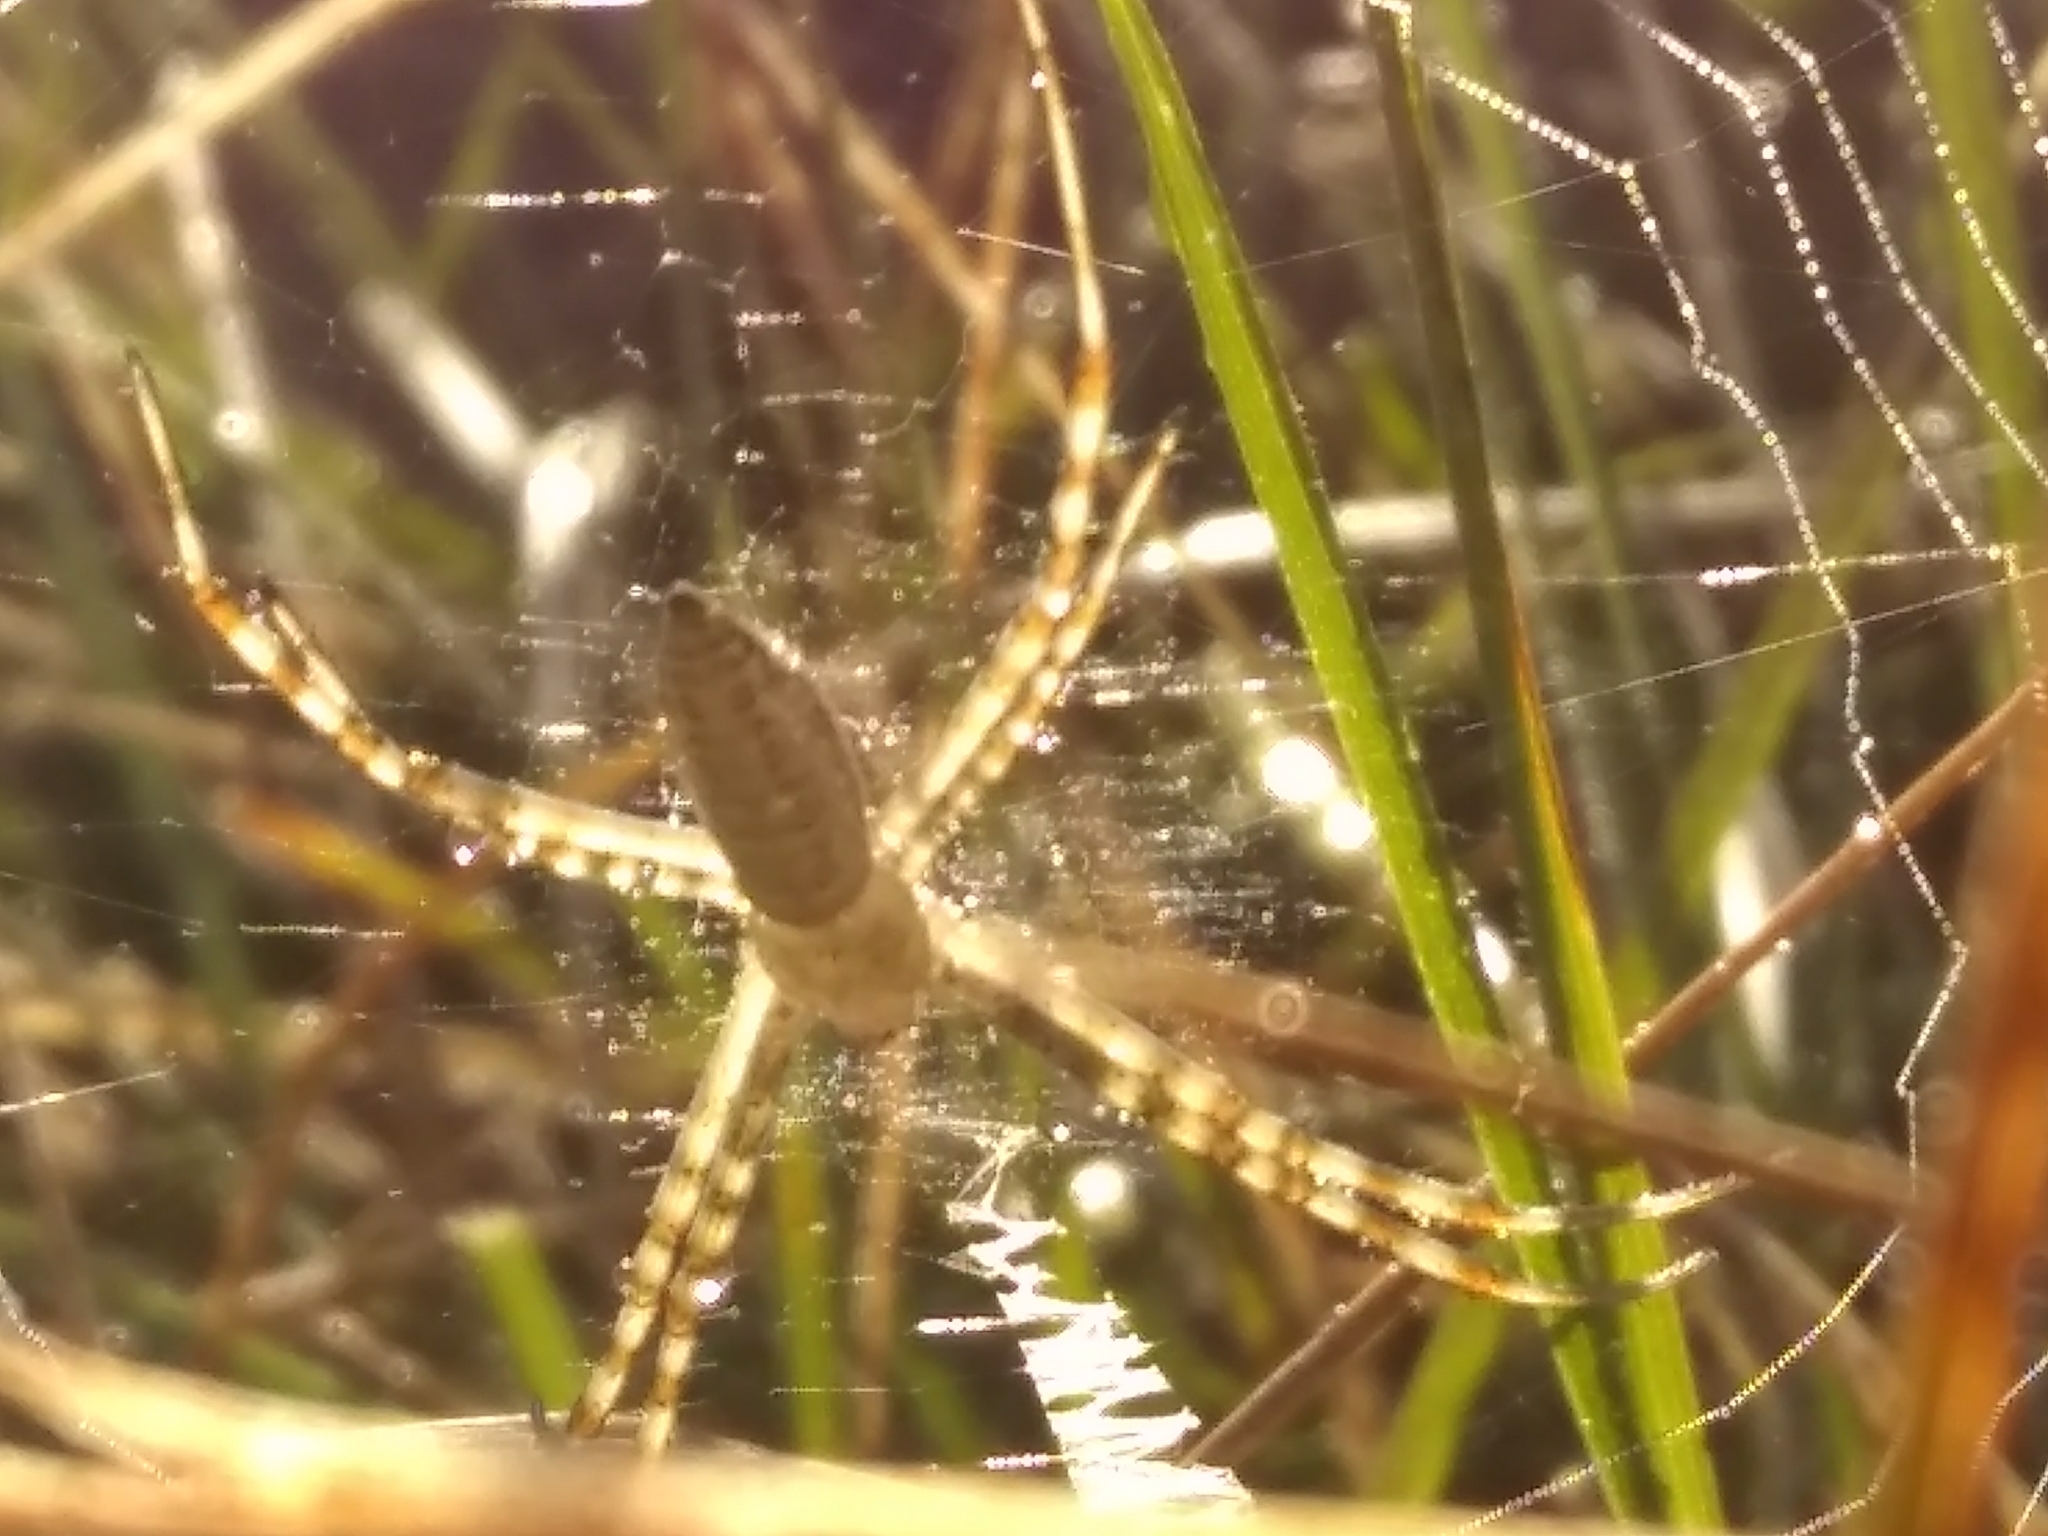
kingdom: Animalia
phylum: Arthropoda
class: Arachnida
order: Araneae
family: Araneidae
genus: Argiope
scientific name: Argiope trifasciata
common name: Banded garden spider
